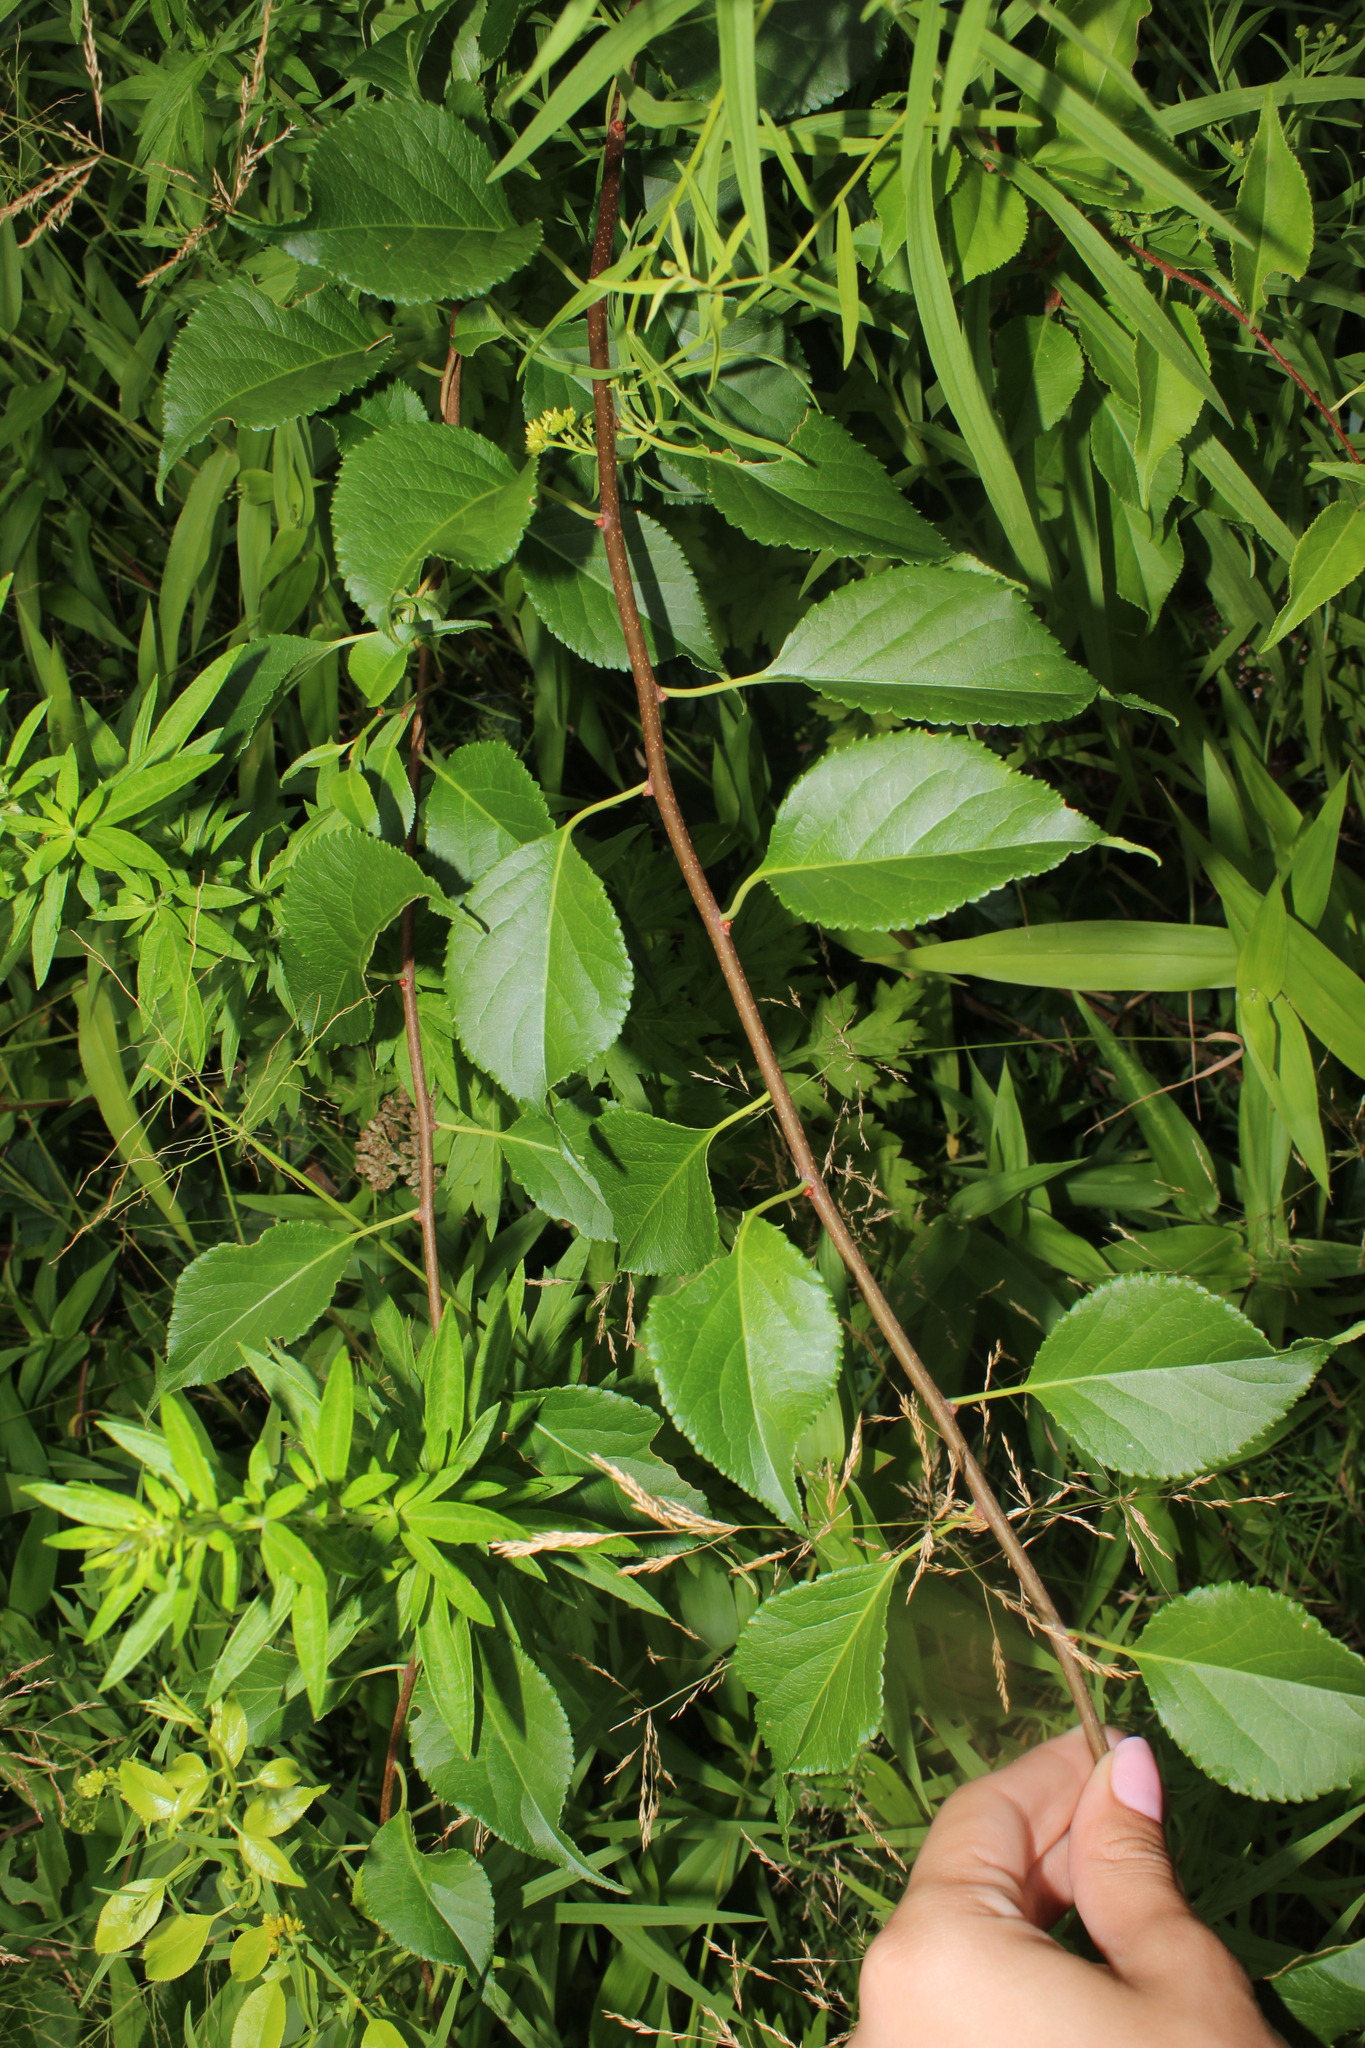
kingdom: Plantae
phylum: Tracheophyta
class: Magnoliopsida
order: Celastrales
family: Celastraceae
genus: Celastrus
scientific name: Celastrus orbiculatus
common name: Oriental bittersweet
